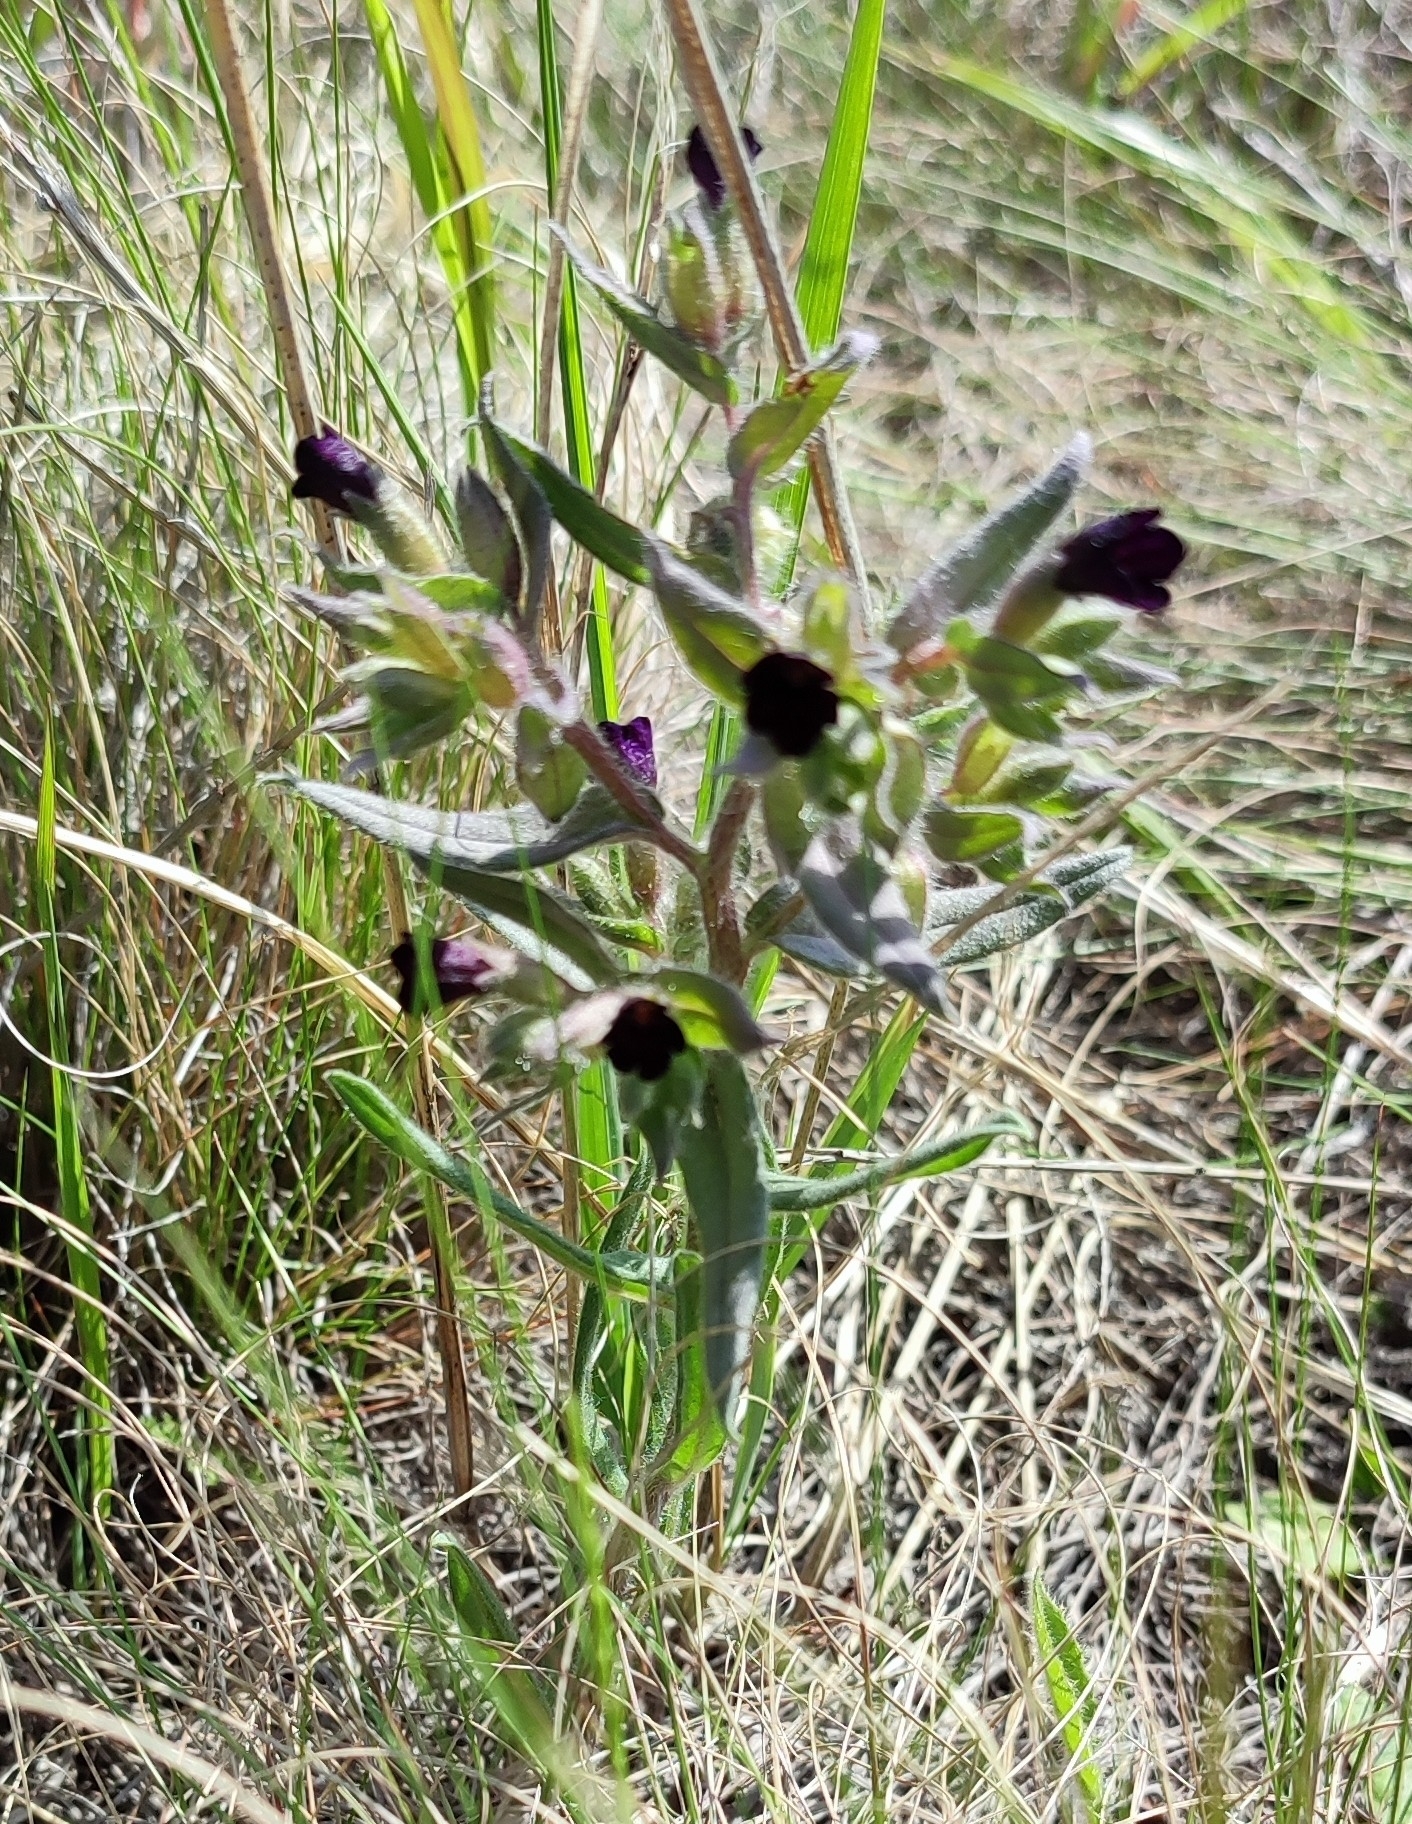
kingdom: Plantae
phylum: Tracheophyta
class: Magnoliopsida
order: Boraginales
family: Boraginaceae
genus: Nonea
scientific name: Nonea pulla
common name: Brown nonea
